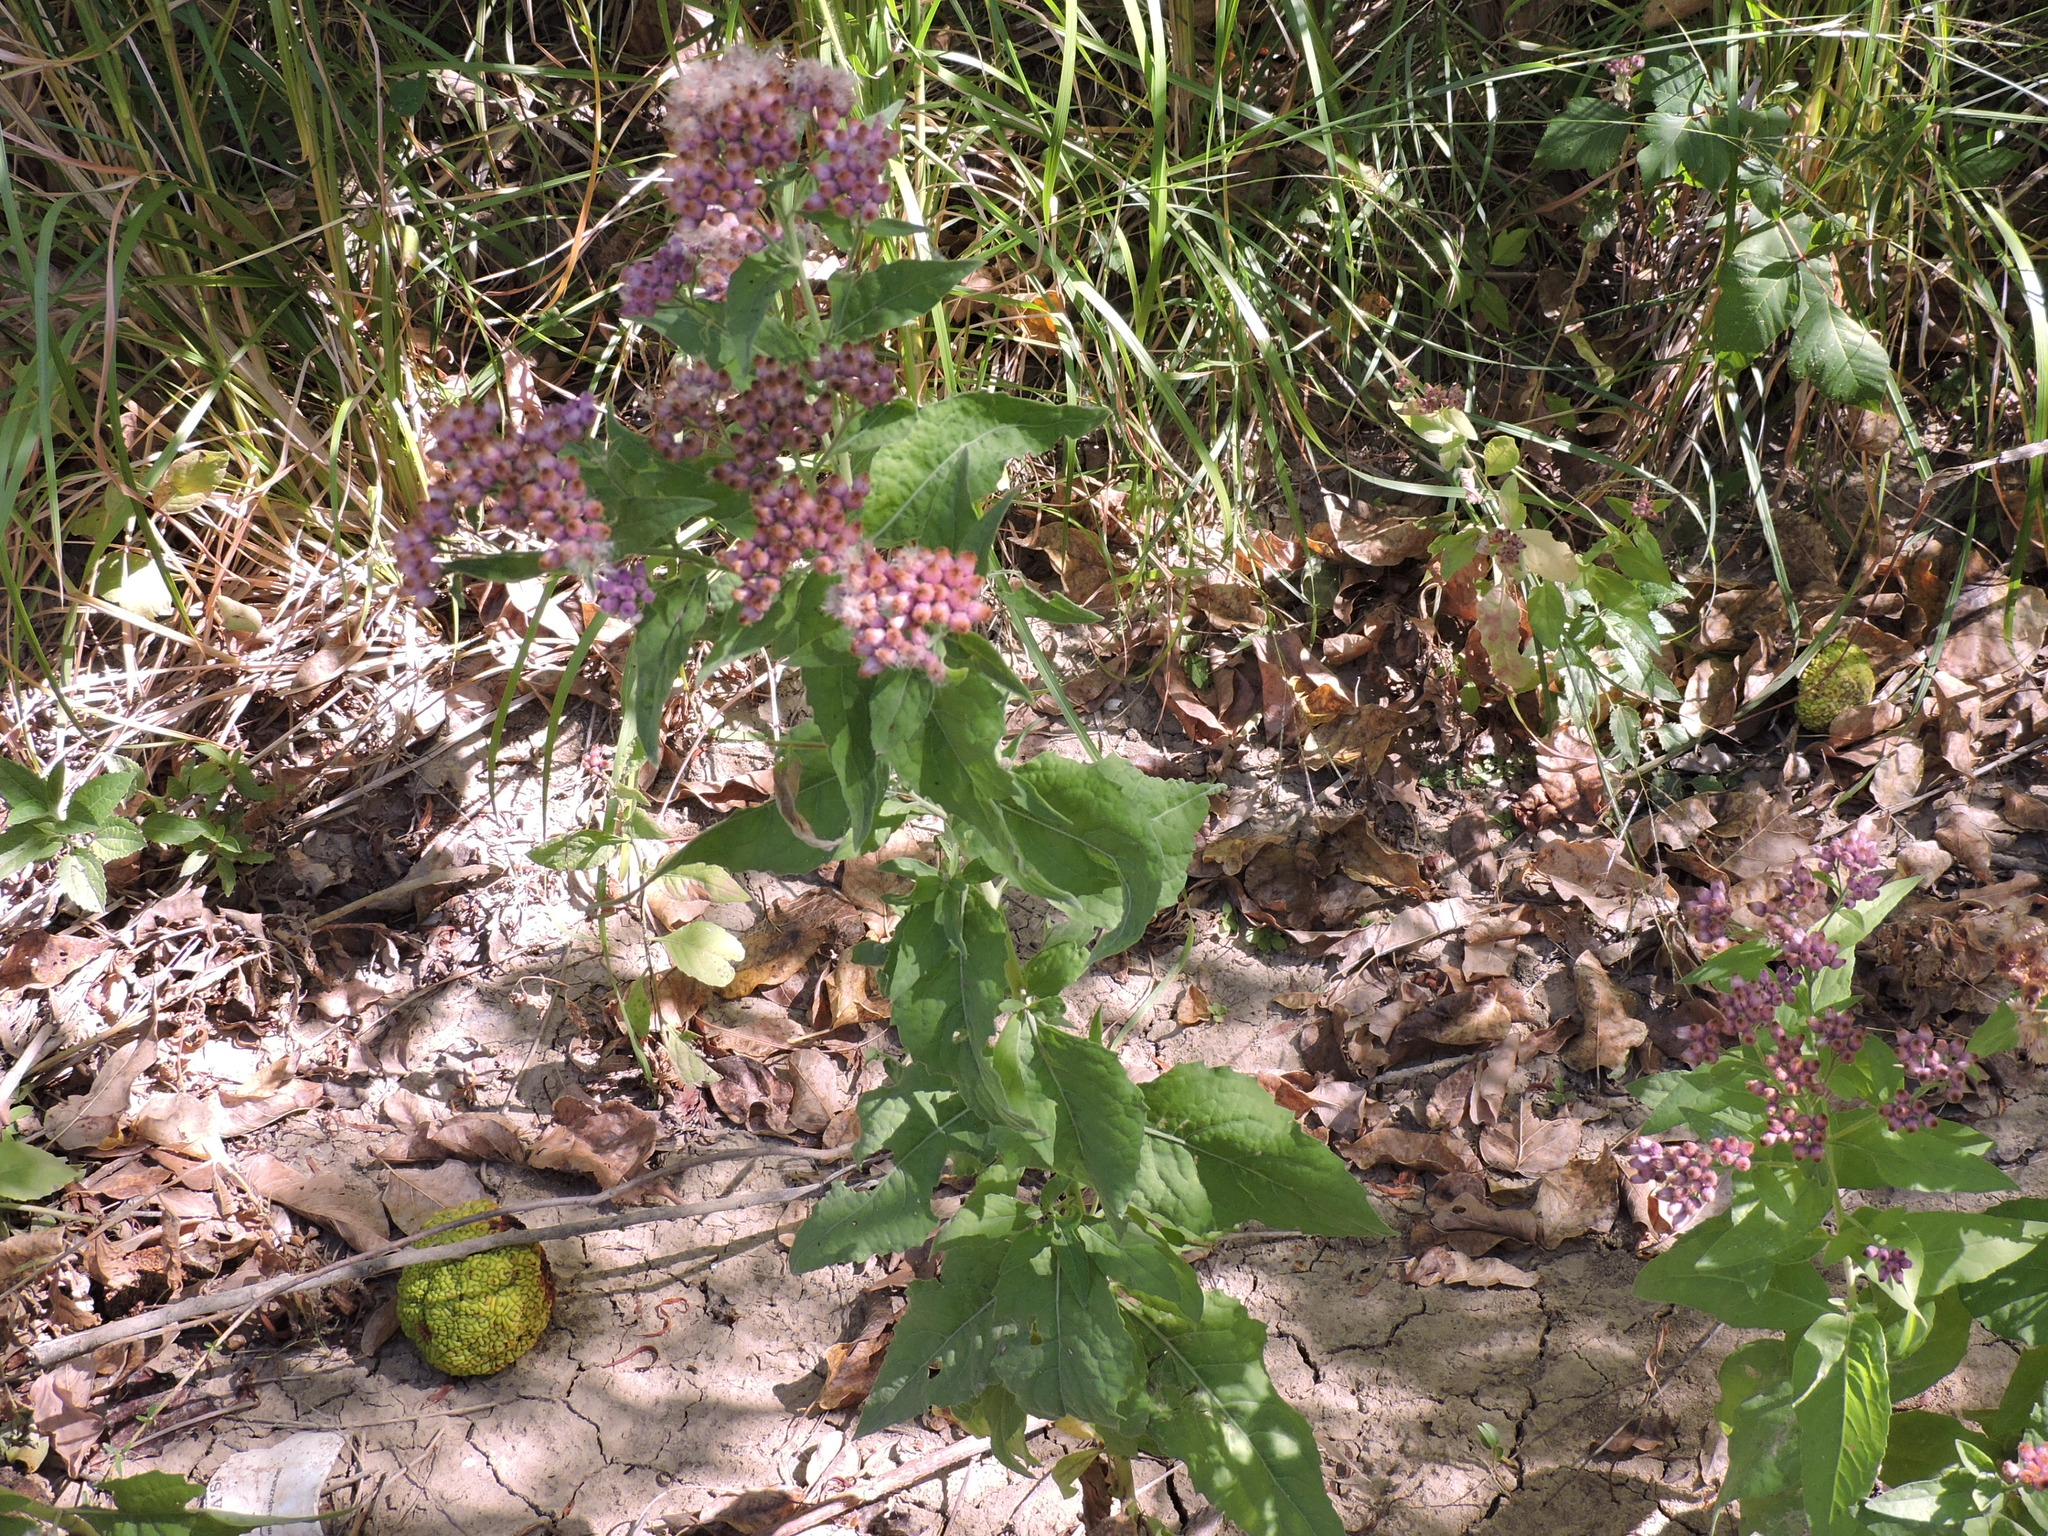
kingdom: Plantae
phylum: Tracheophyta
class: Magnoliopsida
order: Asterales
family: Asteraceae
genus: Pluchea
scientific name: Pluchea odorata
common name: Saltmarsh fleabane
